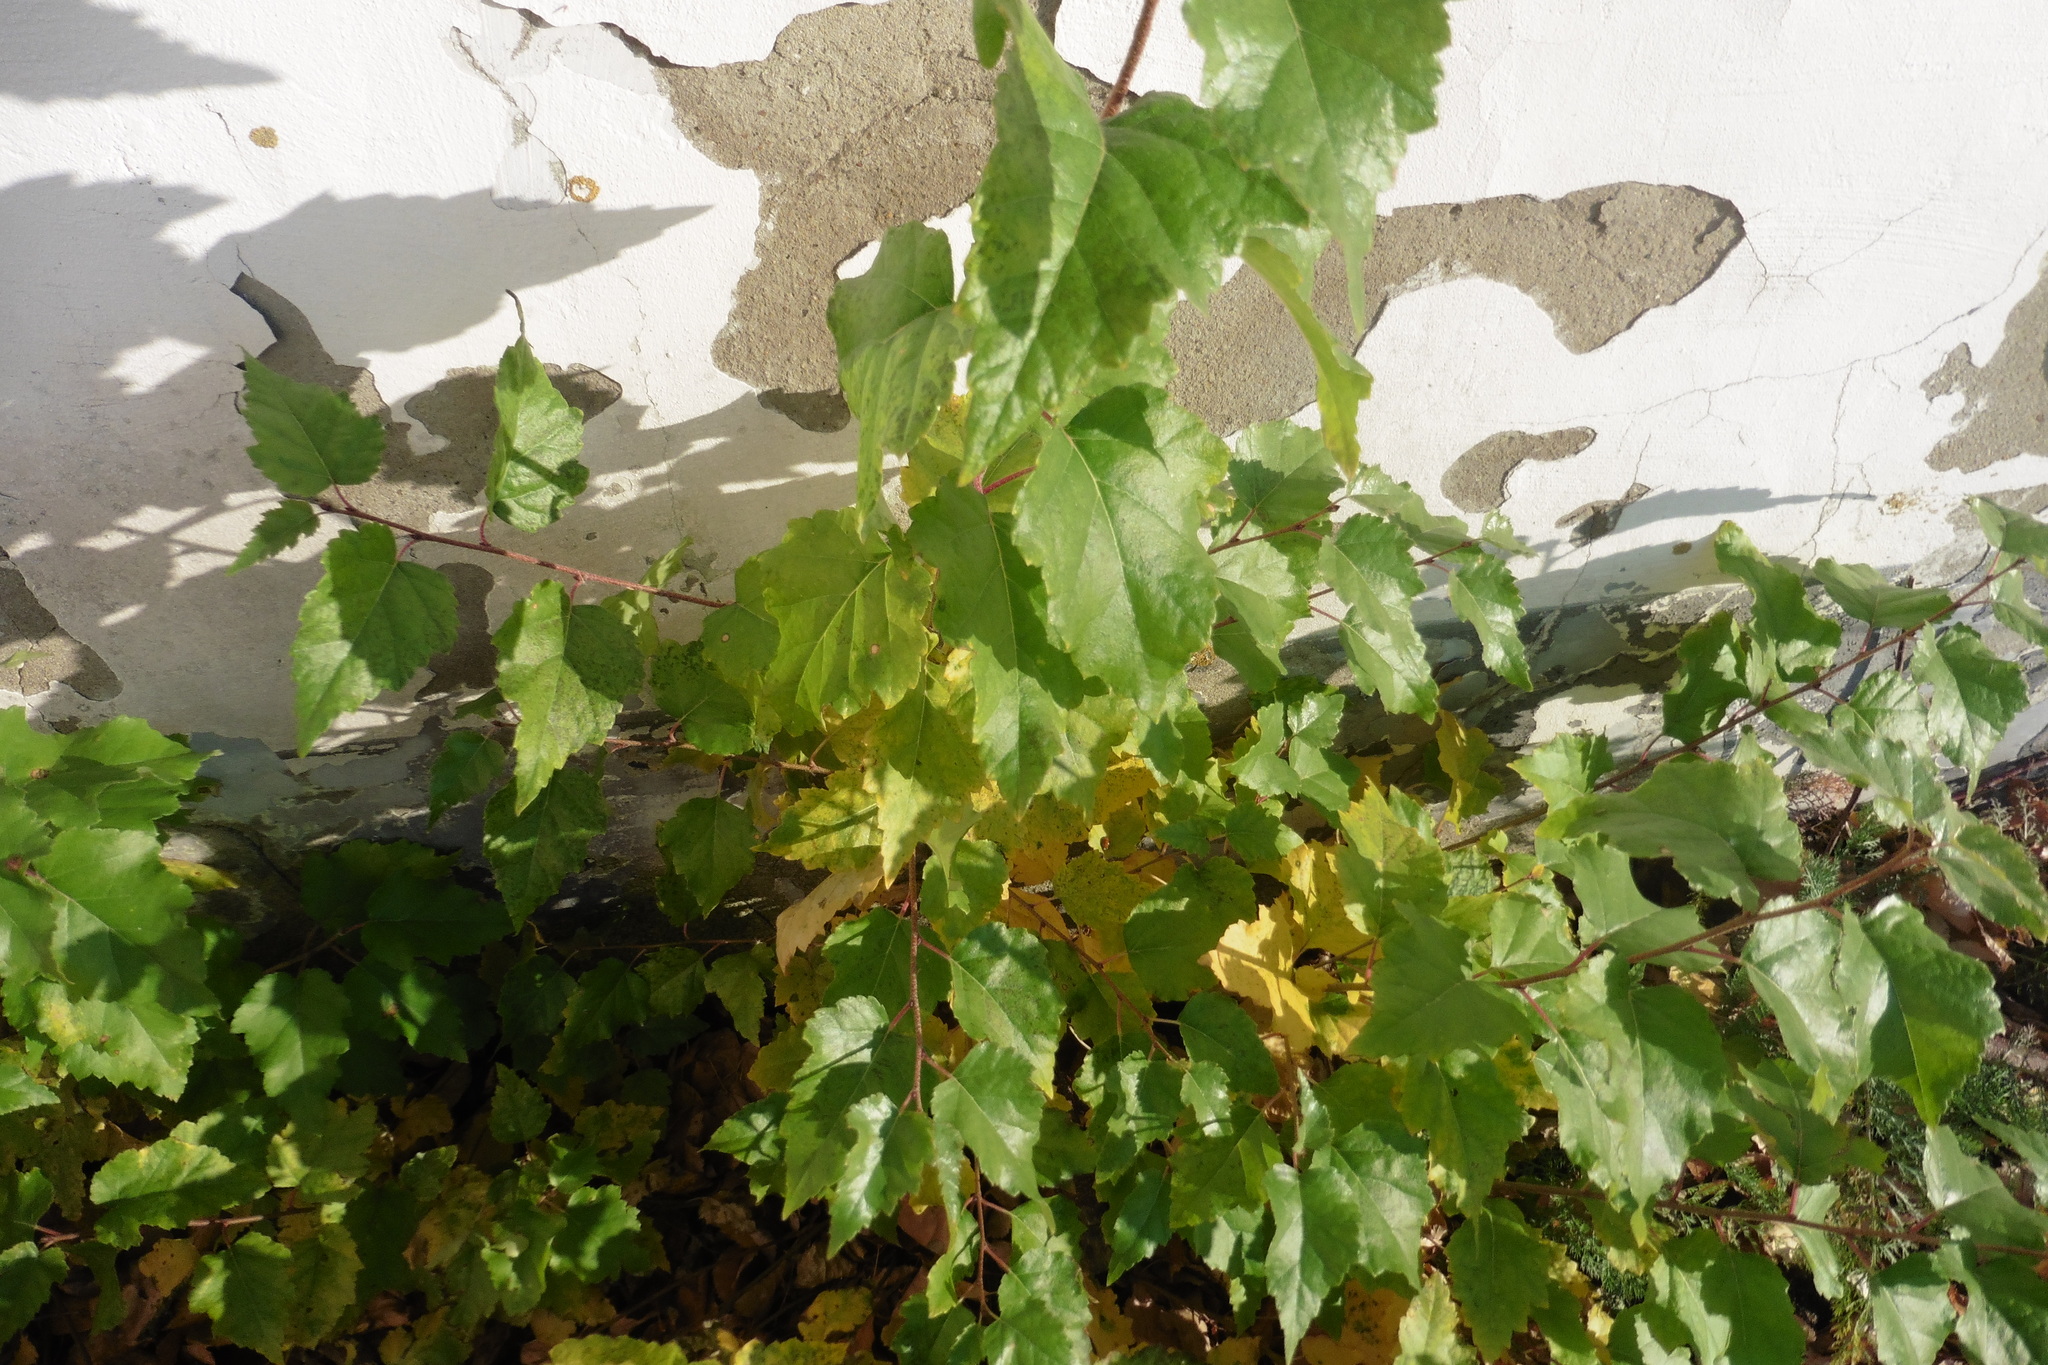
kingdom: Plantae
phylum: Tracheophyta
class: Magnoliopsida
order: Fagales
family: Betulaceae
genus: Betula
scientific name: Betula pendula
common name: Silver birch
